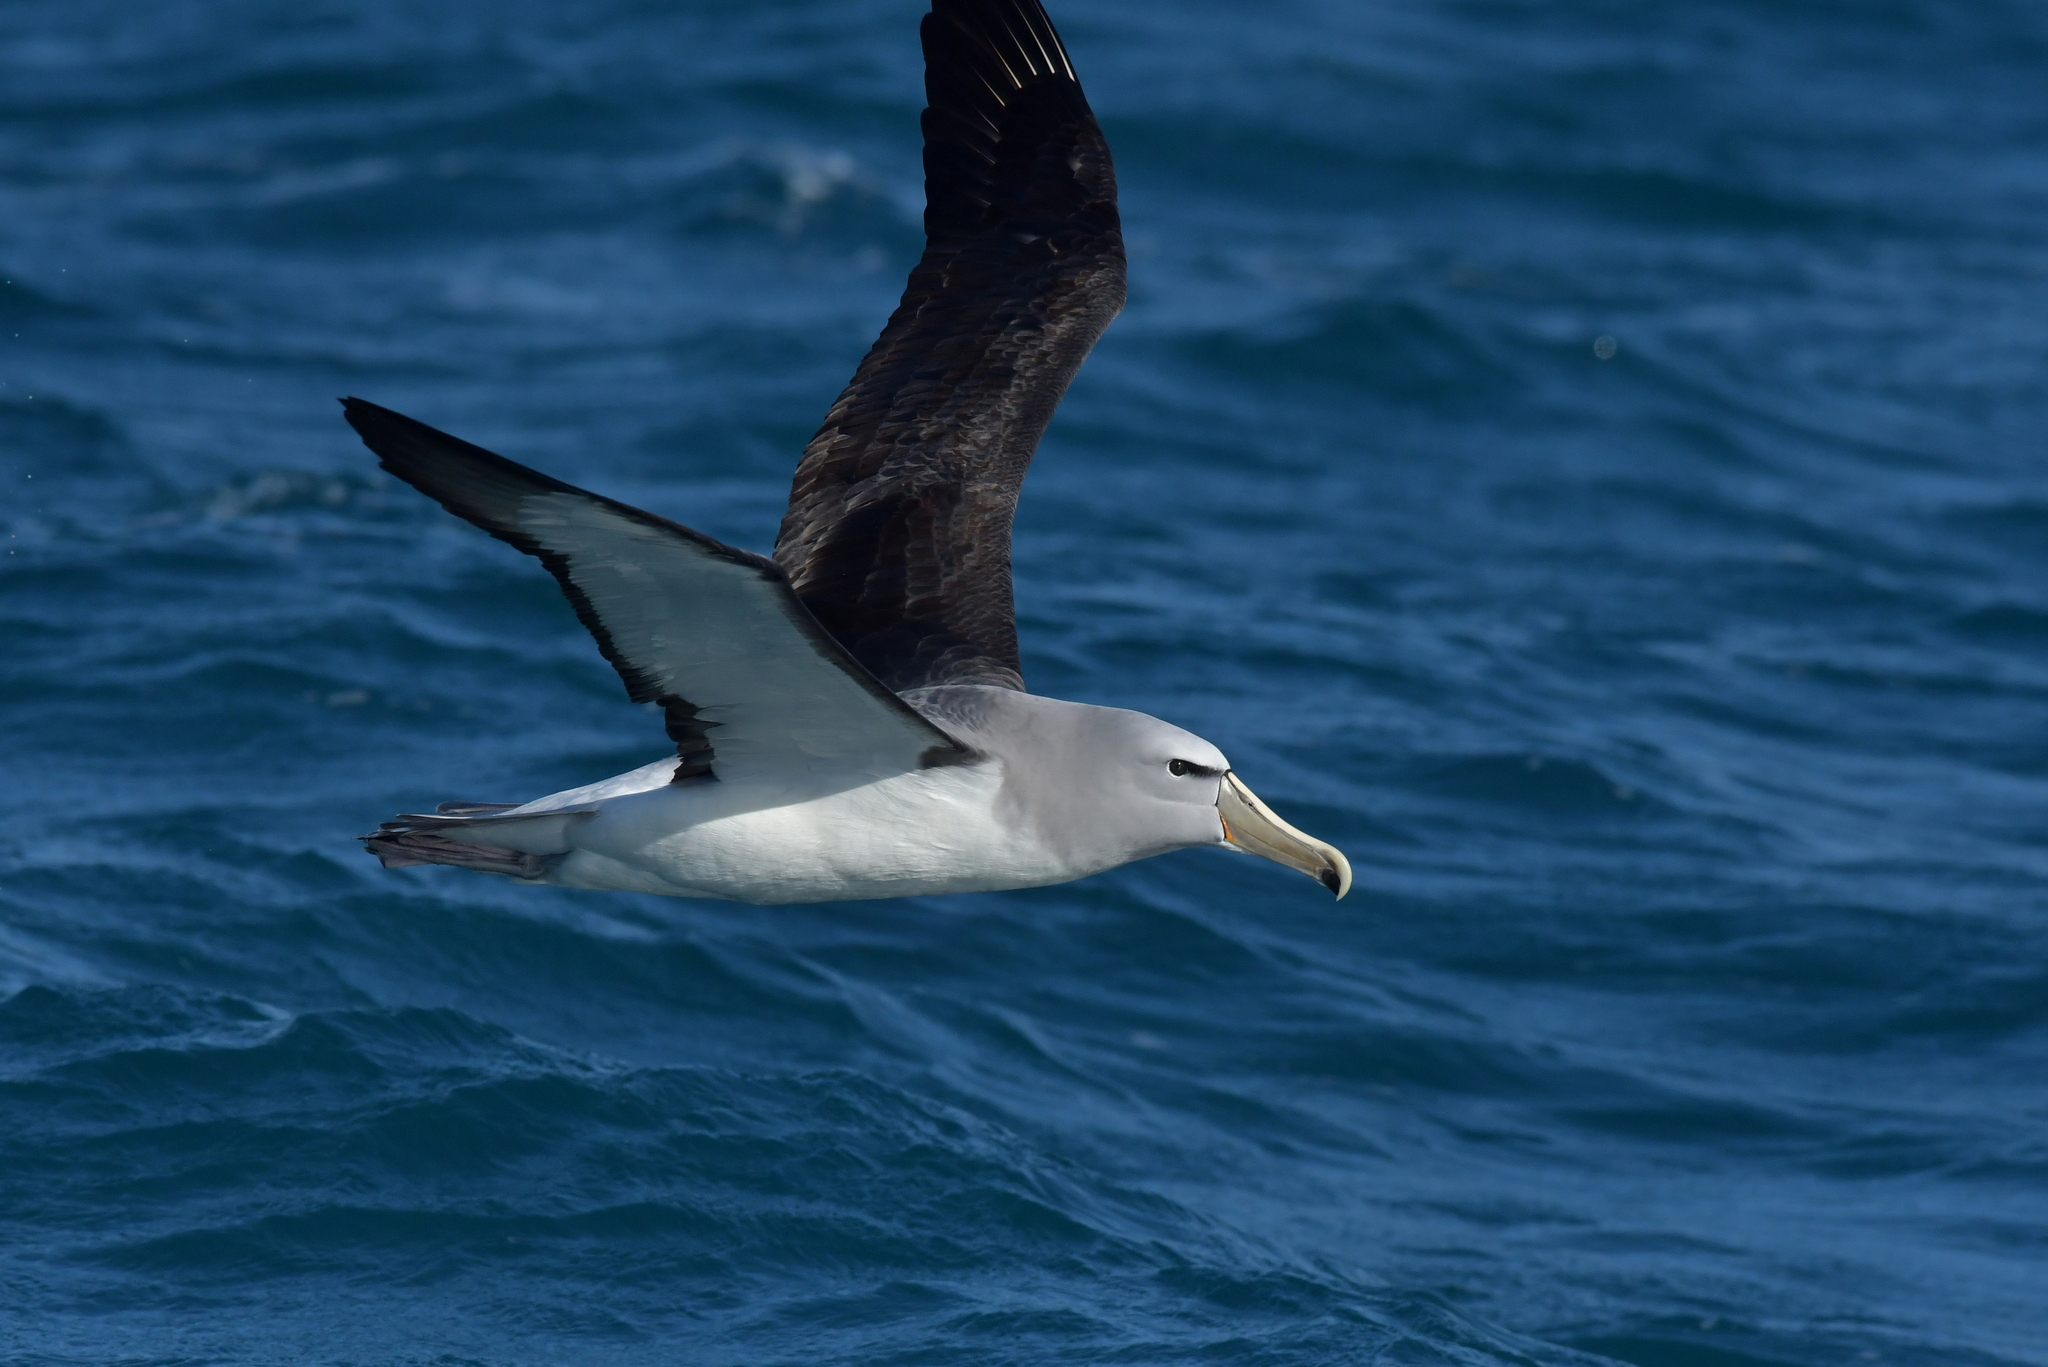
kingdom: Animalia
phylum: Chordata
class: Aves
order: Procellariiformes
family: Diomedeidae
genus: Thalassarche
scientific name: Thalassarche salvini
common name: Salvin's albatross
